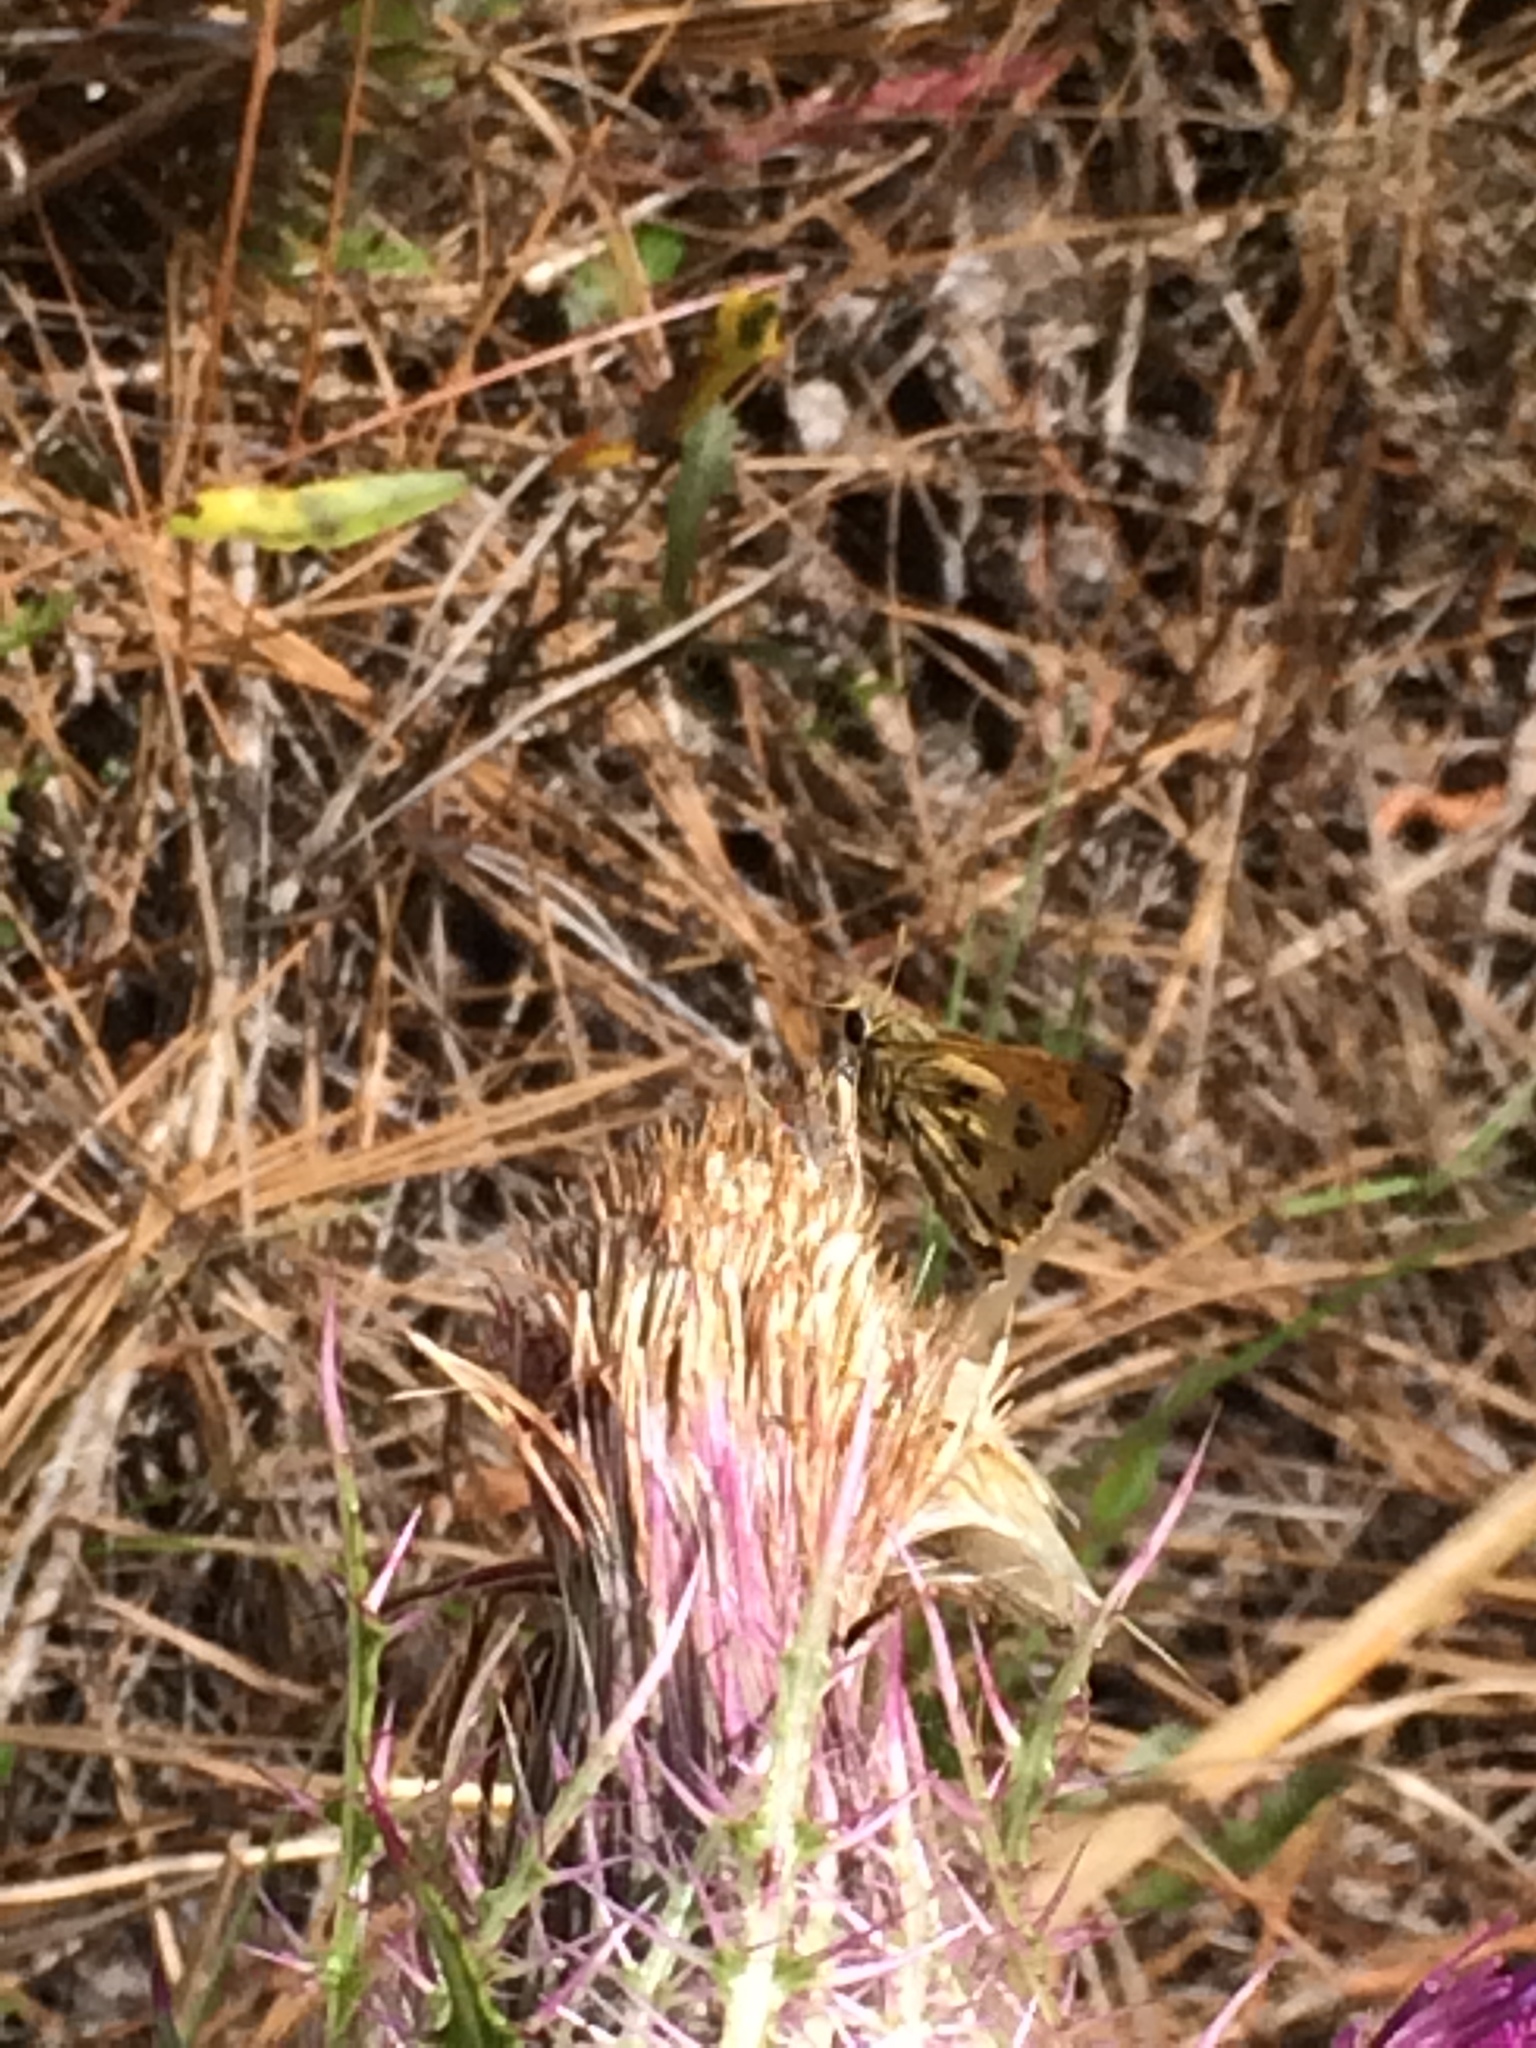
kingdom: Animalia
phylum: Arthropoda
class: Insecta
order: Lepidoptera
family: Hesperiidae
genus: Polites
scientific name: Polites vibex
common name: Whirlabout
